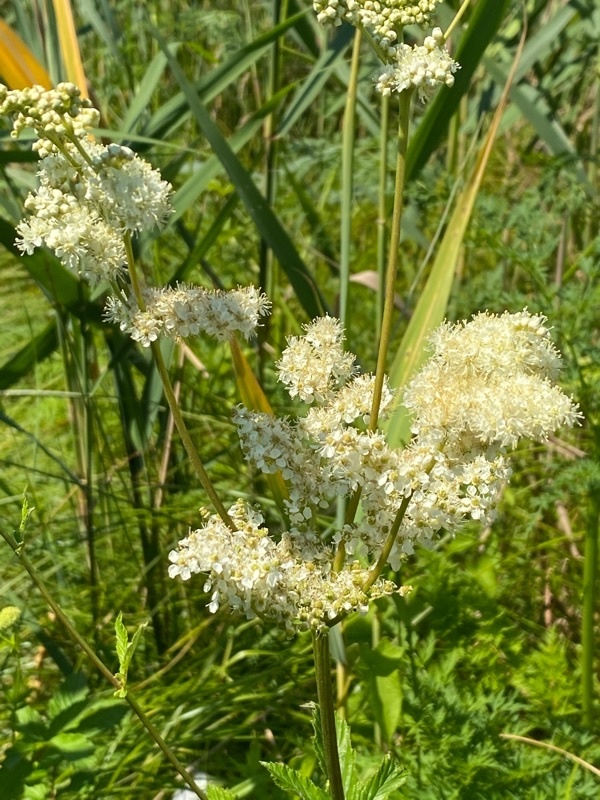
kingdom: Plantae
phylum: Tracheophyta
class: Magnoliopsida
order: Rosales
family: Rosaceae
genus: Filipendula
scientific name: Filipendula ulmaria
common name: Meadowsweet
